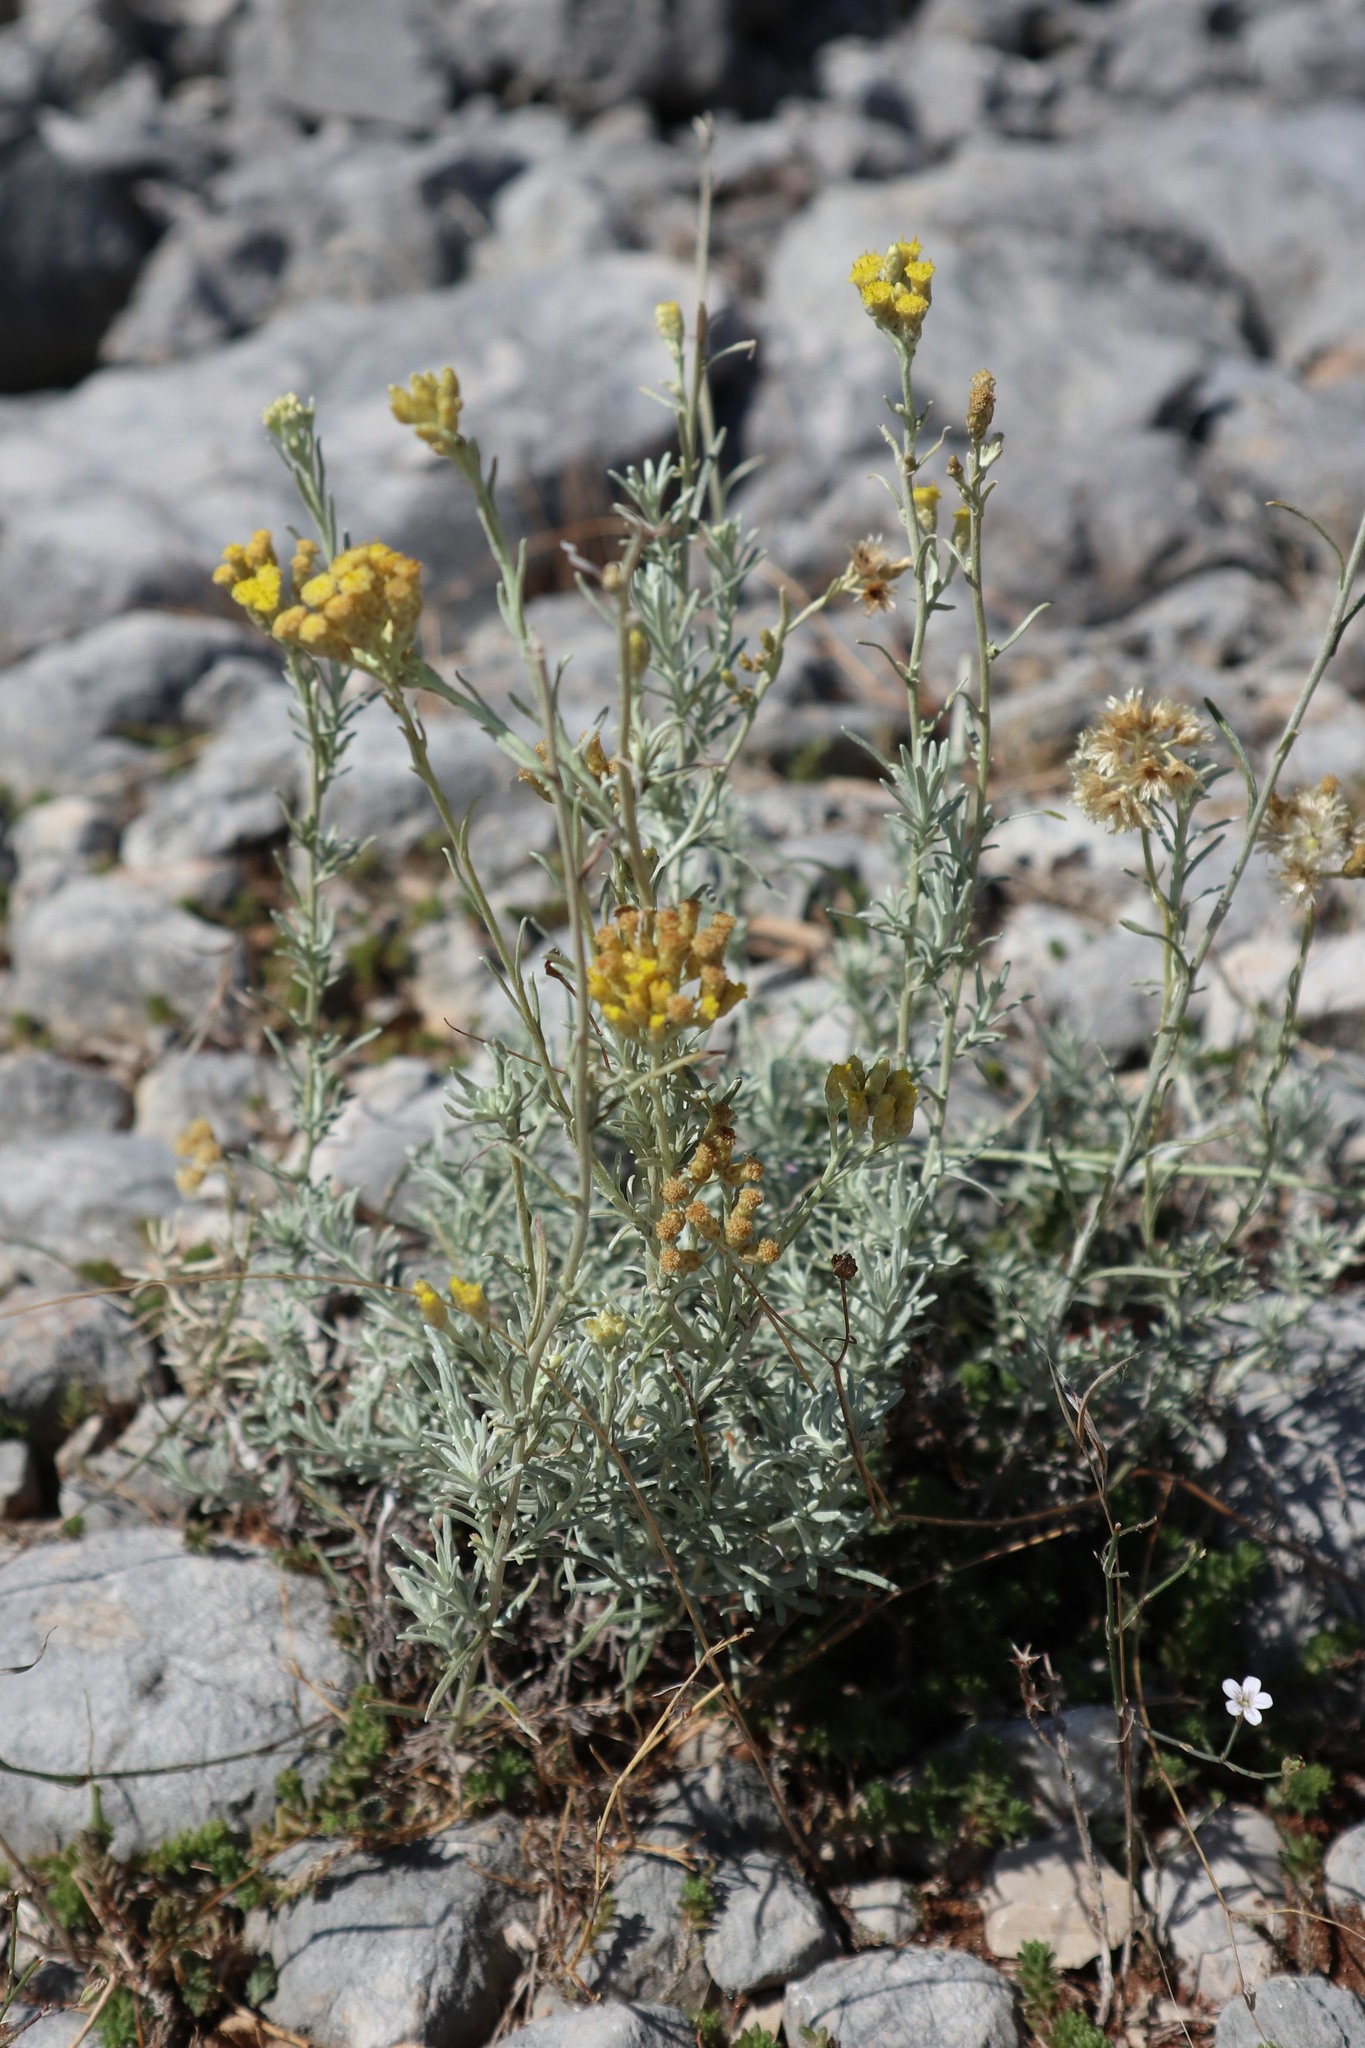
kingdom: Plantae
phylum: Tracheophyta
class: Magnoliopsida
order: Asterales
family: Asteraceae
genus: Helichrysum
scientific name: Helichrysum italicum
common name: Curryplant
